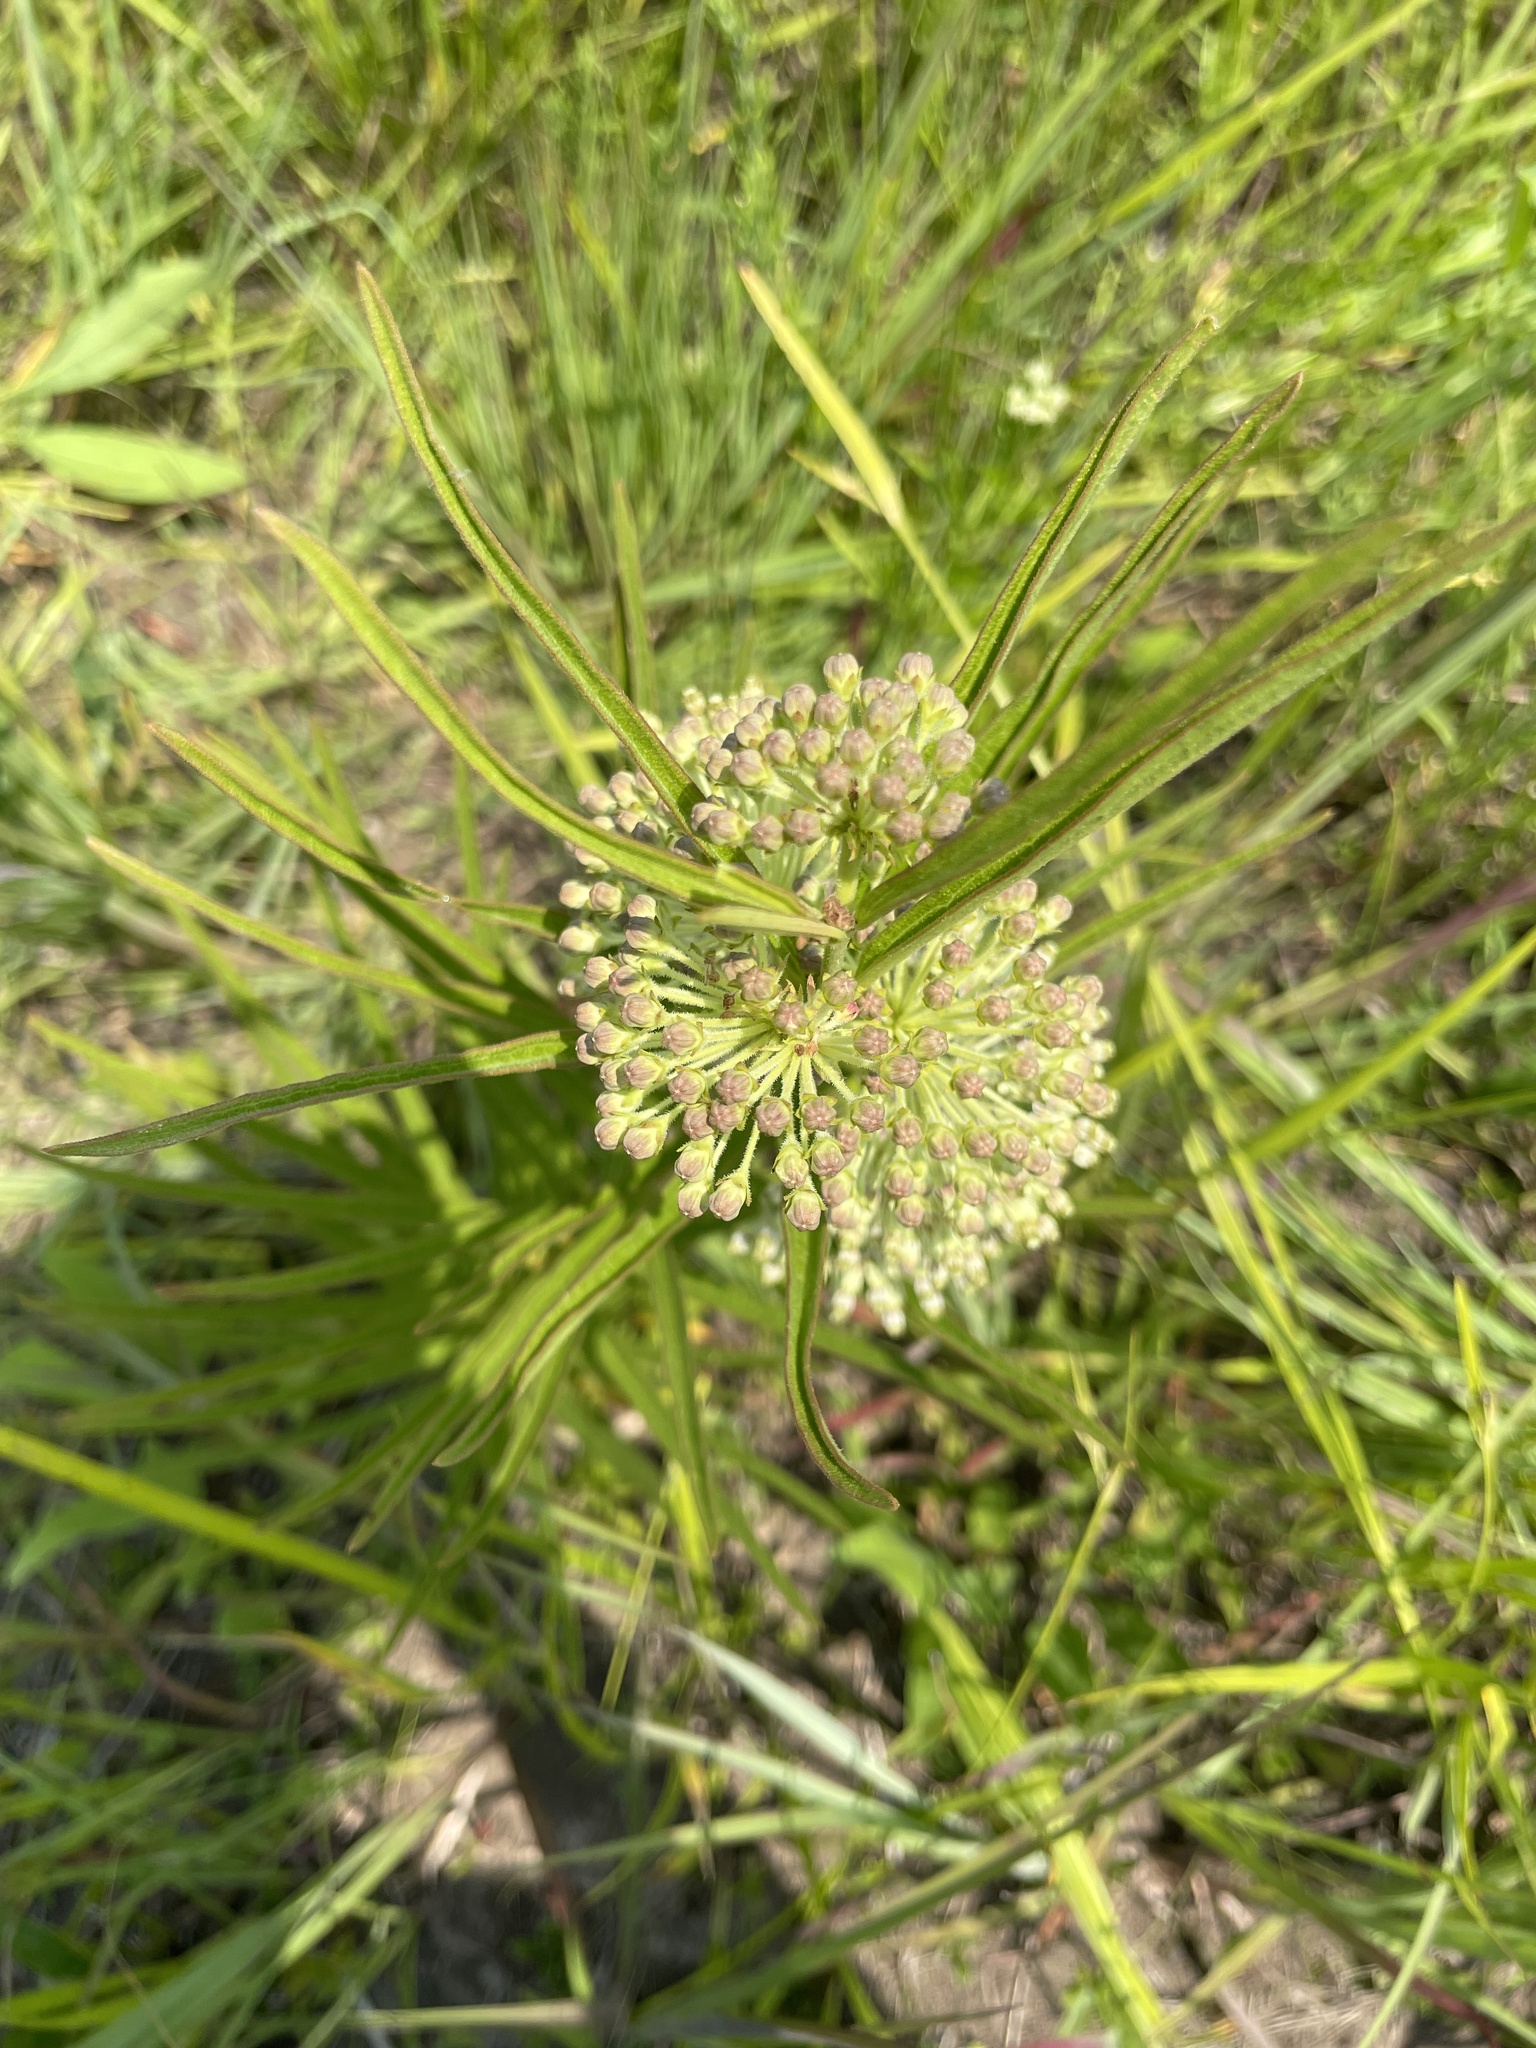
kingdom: Plantae
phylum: Tracheophyta
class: Magnoliopsida
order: Gentianales
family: Apocynaceae
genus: Asclepias
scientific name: Asclepias hirtella
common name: Prairie milkweed
